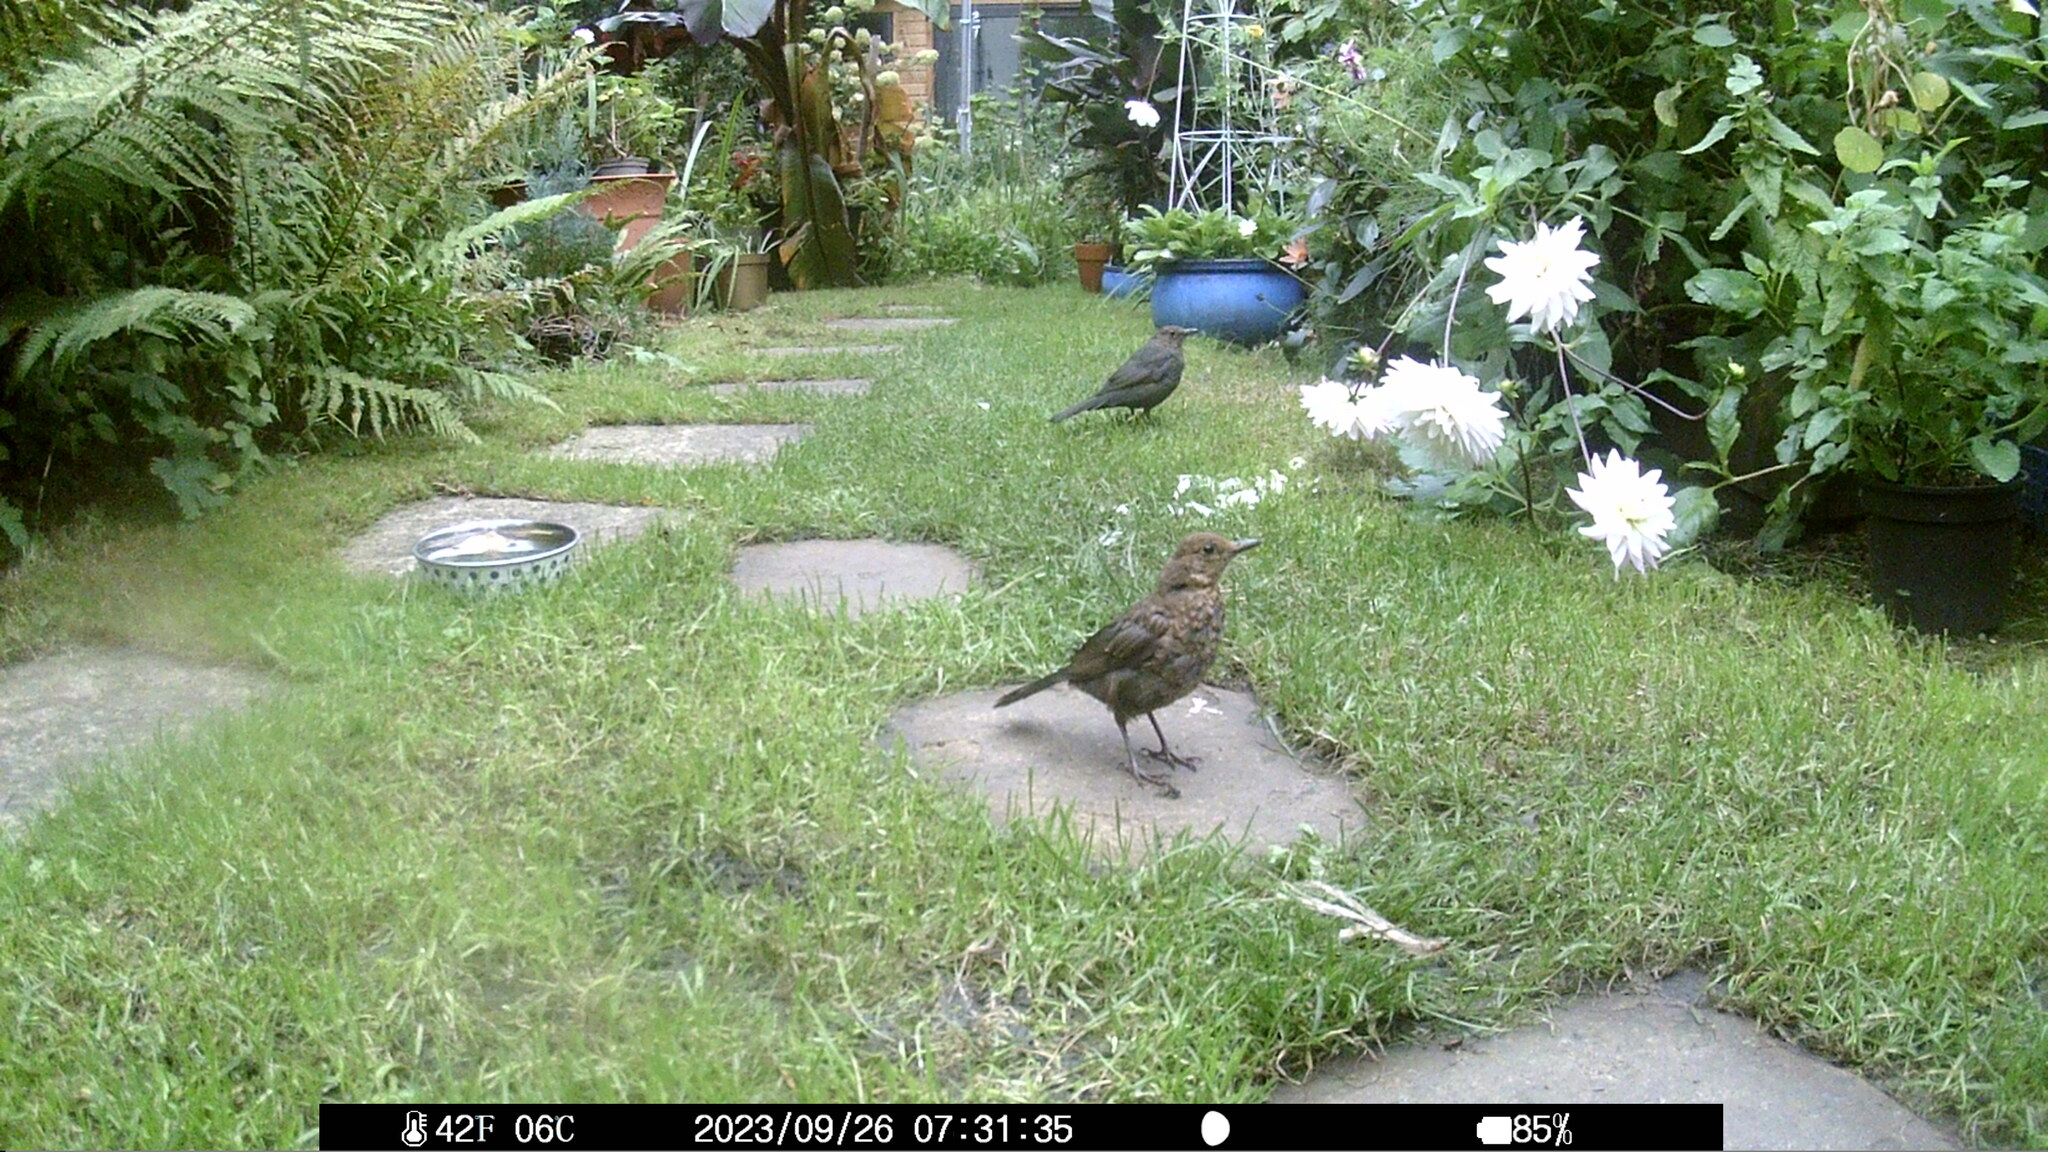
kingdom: Animalia
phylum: Chordata
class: Aves
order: Passeriformes
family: Turdidae
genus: Turdus
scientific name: Turdus merula
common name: Common blackbird
